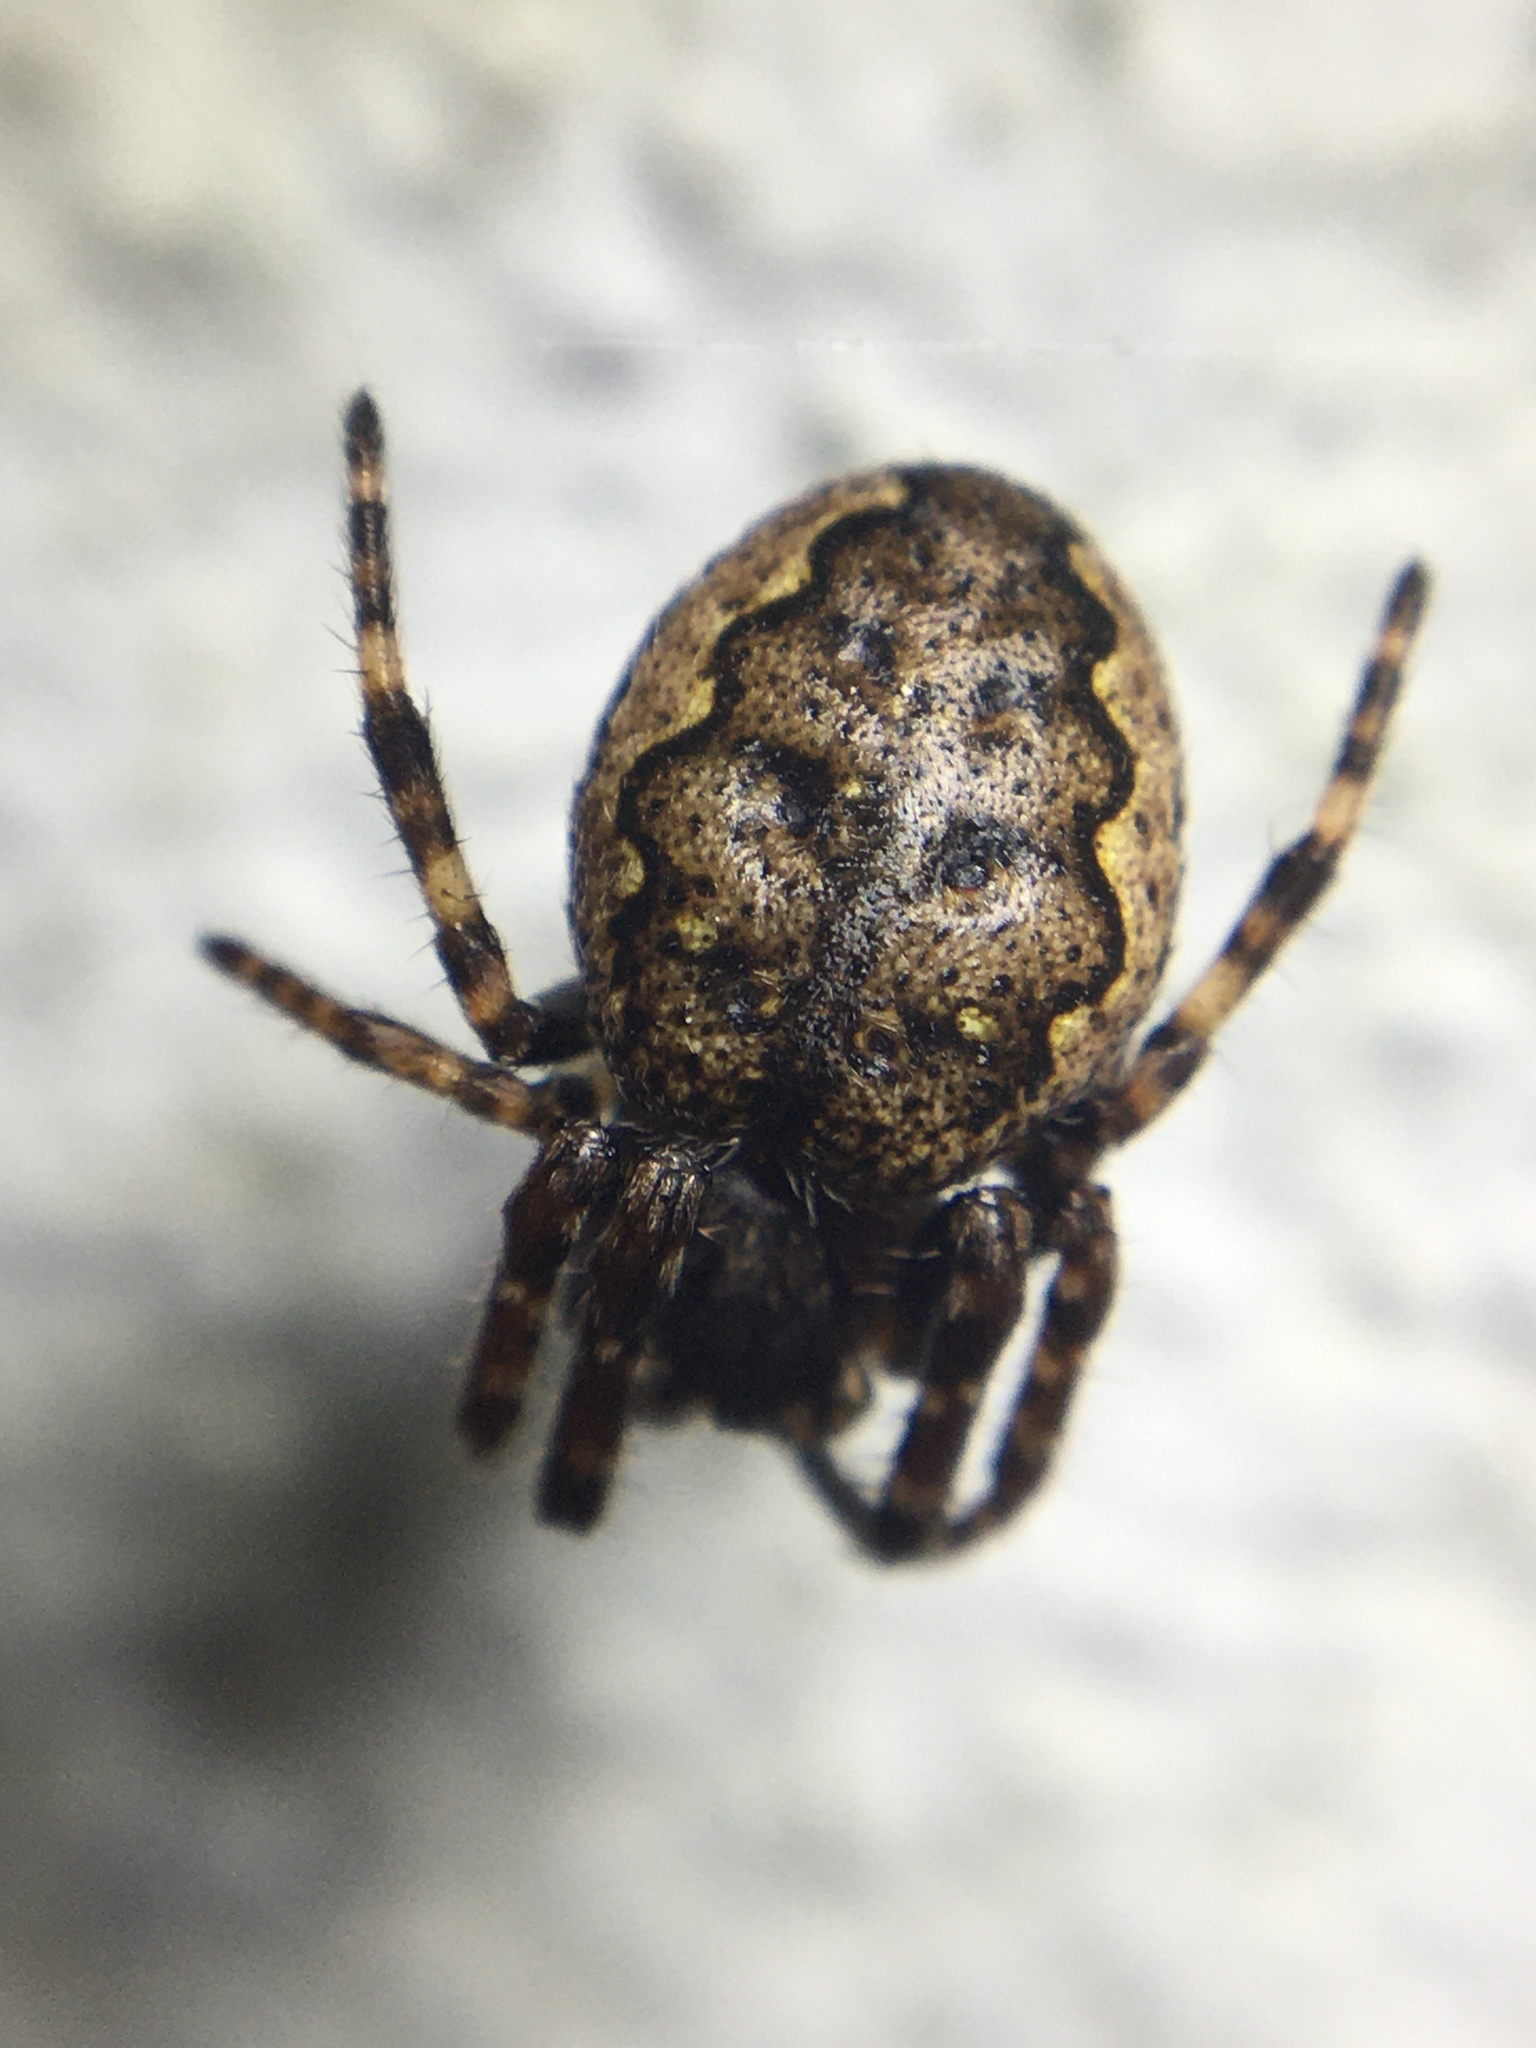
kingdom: Animalia
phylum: Arthropoda
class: Arachnida
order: Araneae
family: Araneidae
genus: Nuctenea
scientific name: Nuctenea umbratica
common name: Toad spider
